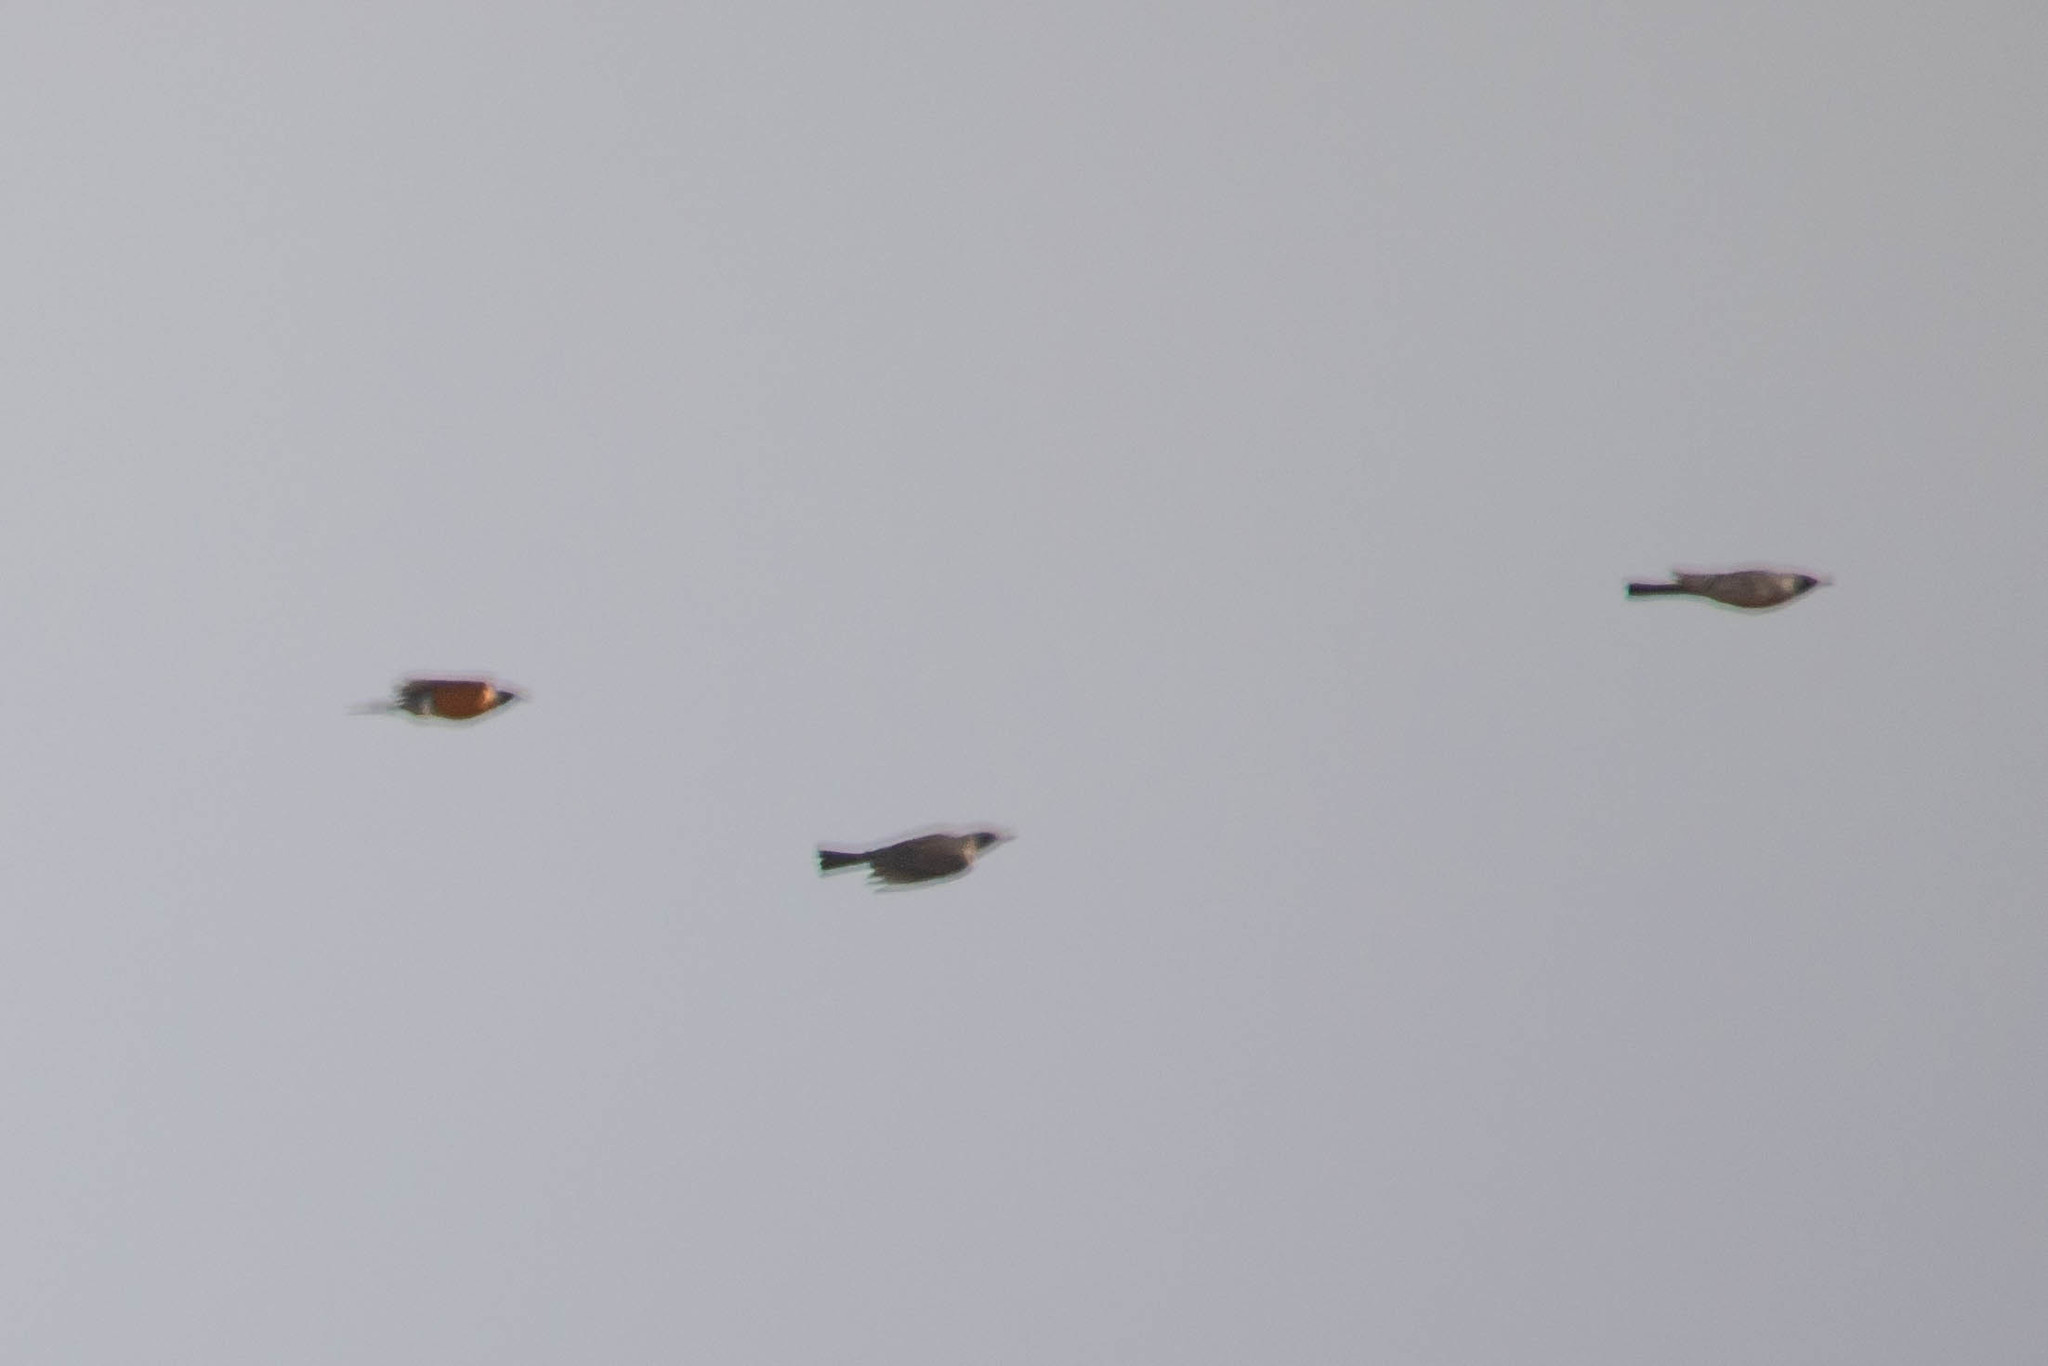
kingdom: Animalia
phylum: Chordata
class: Aves
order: Passeriformes
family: Turdidae
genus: Turdus
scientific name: Turdus migratorius
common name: American robin
